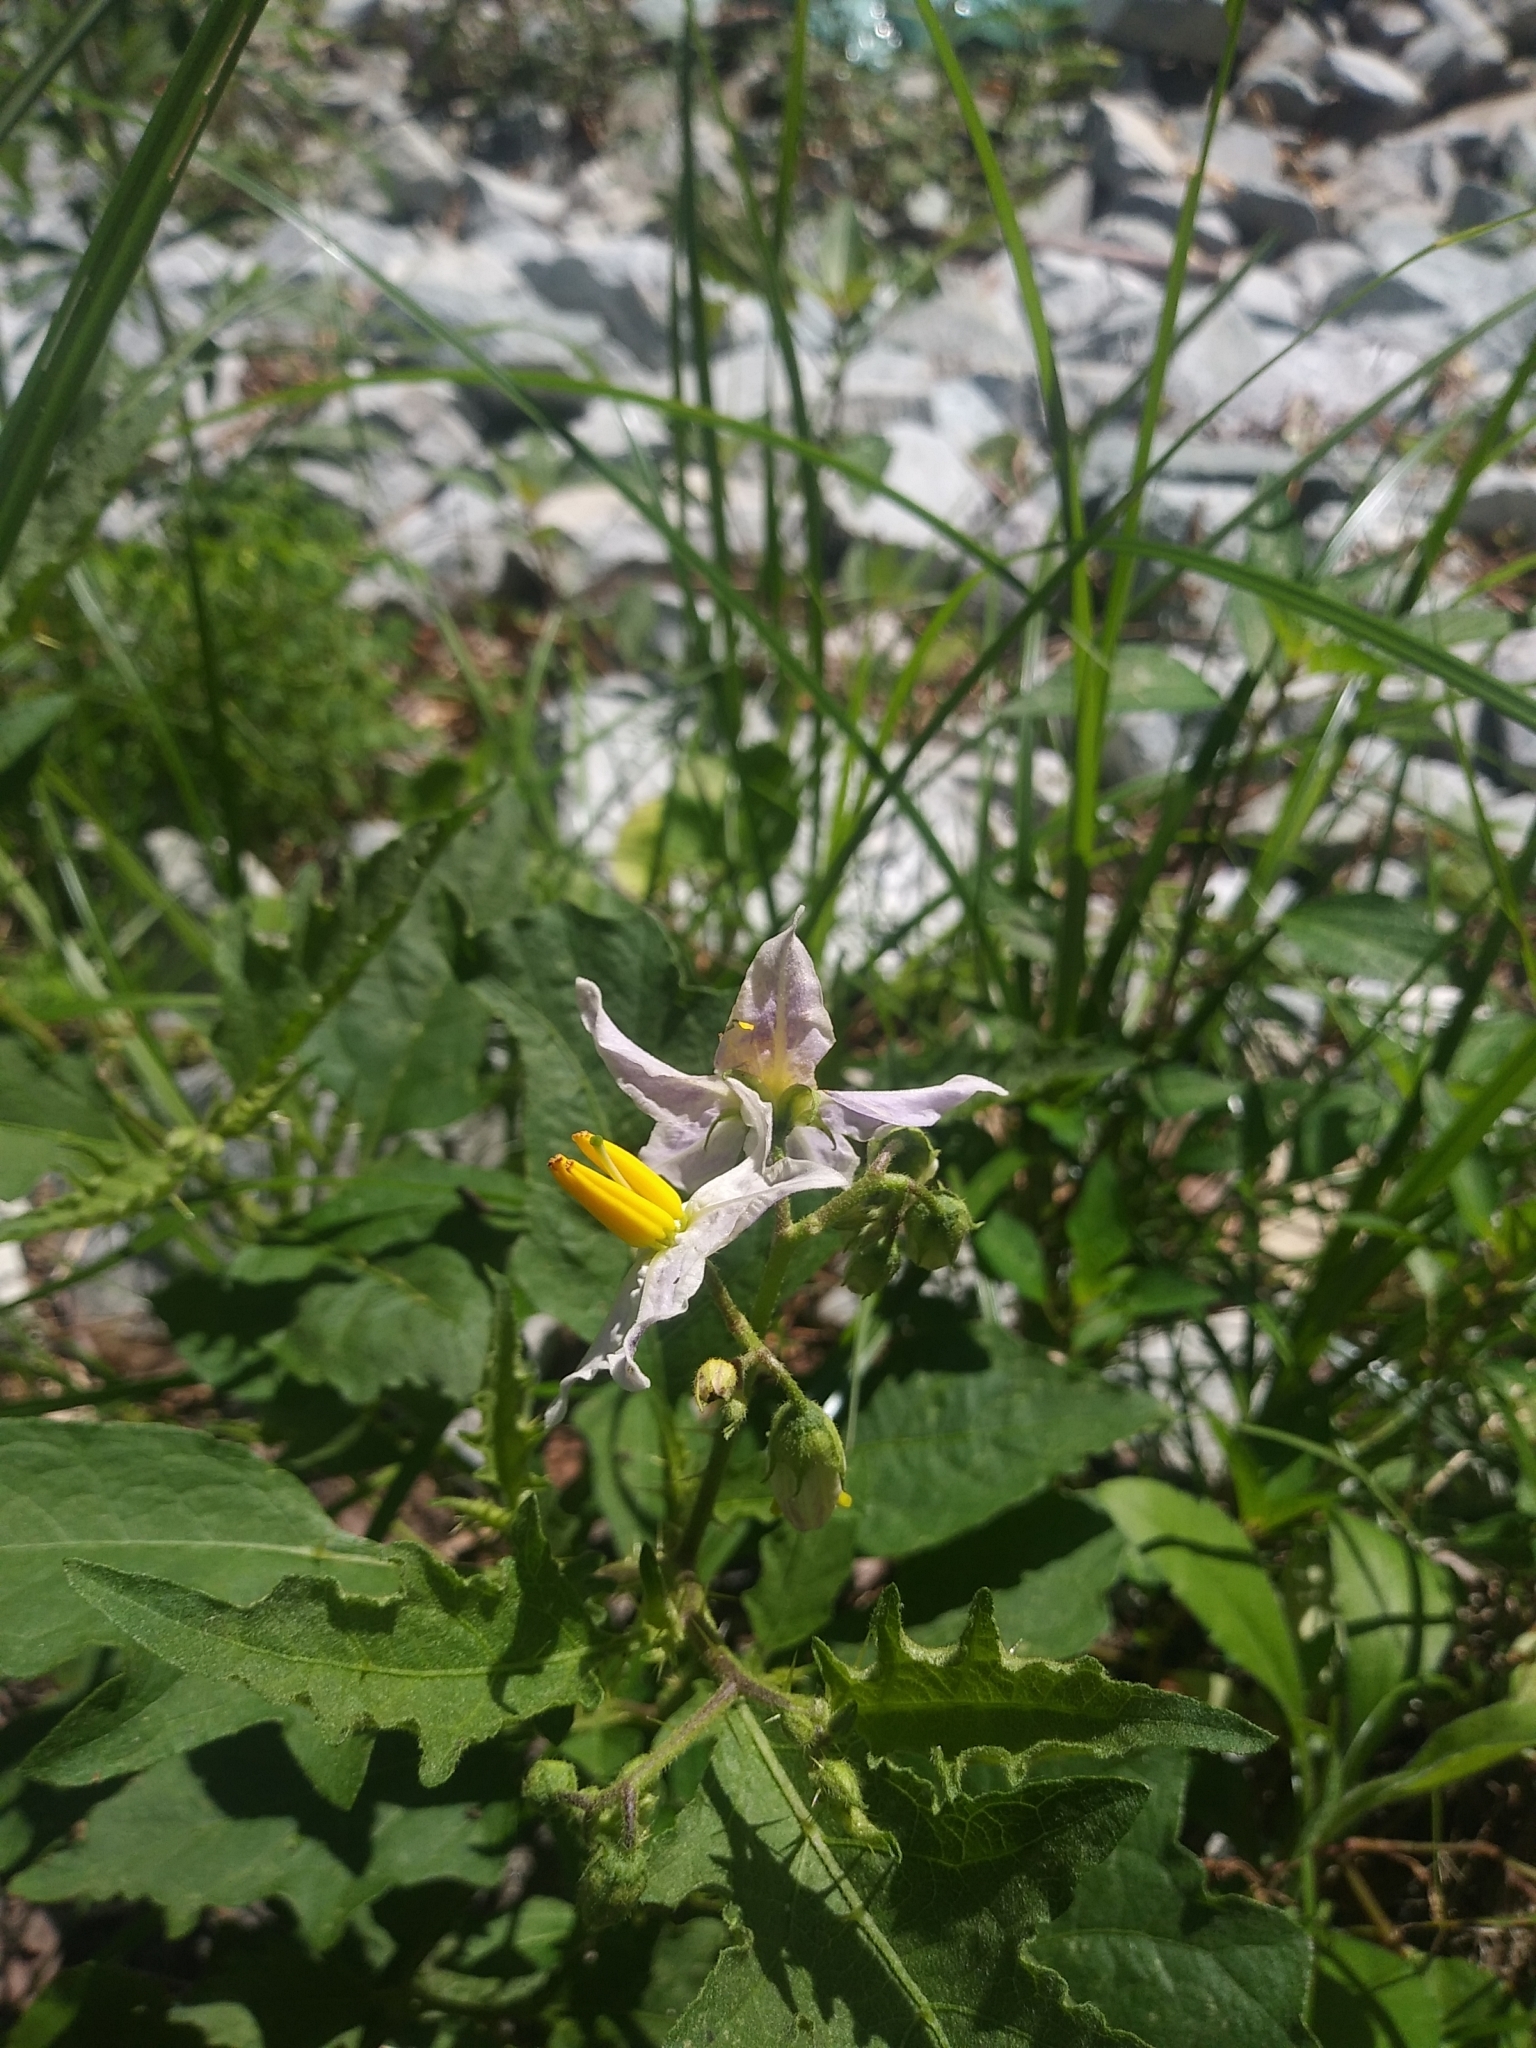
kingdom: Plantae
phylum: Tracheophyta
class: Magnoliopsida
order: Solanales
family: Solanaceae
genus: Solanum
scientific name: Solanum carolinense
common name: Horse-nettle
